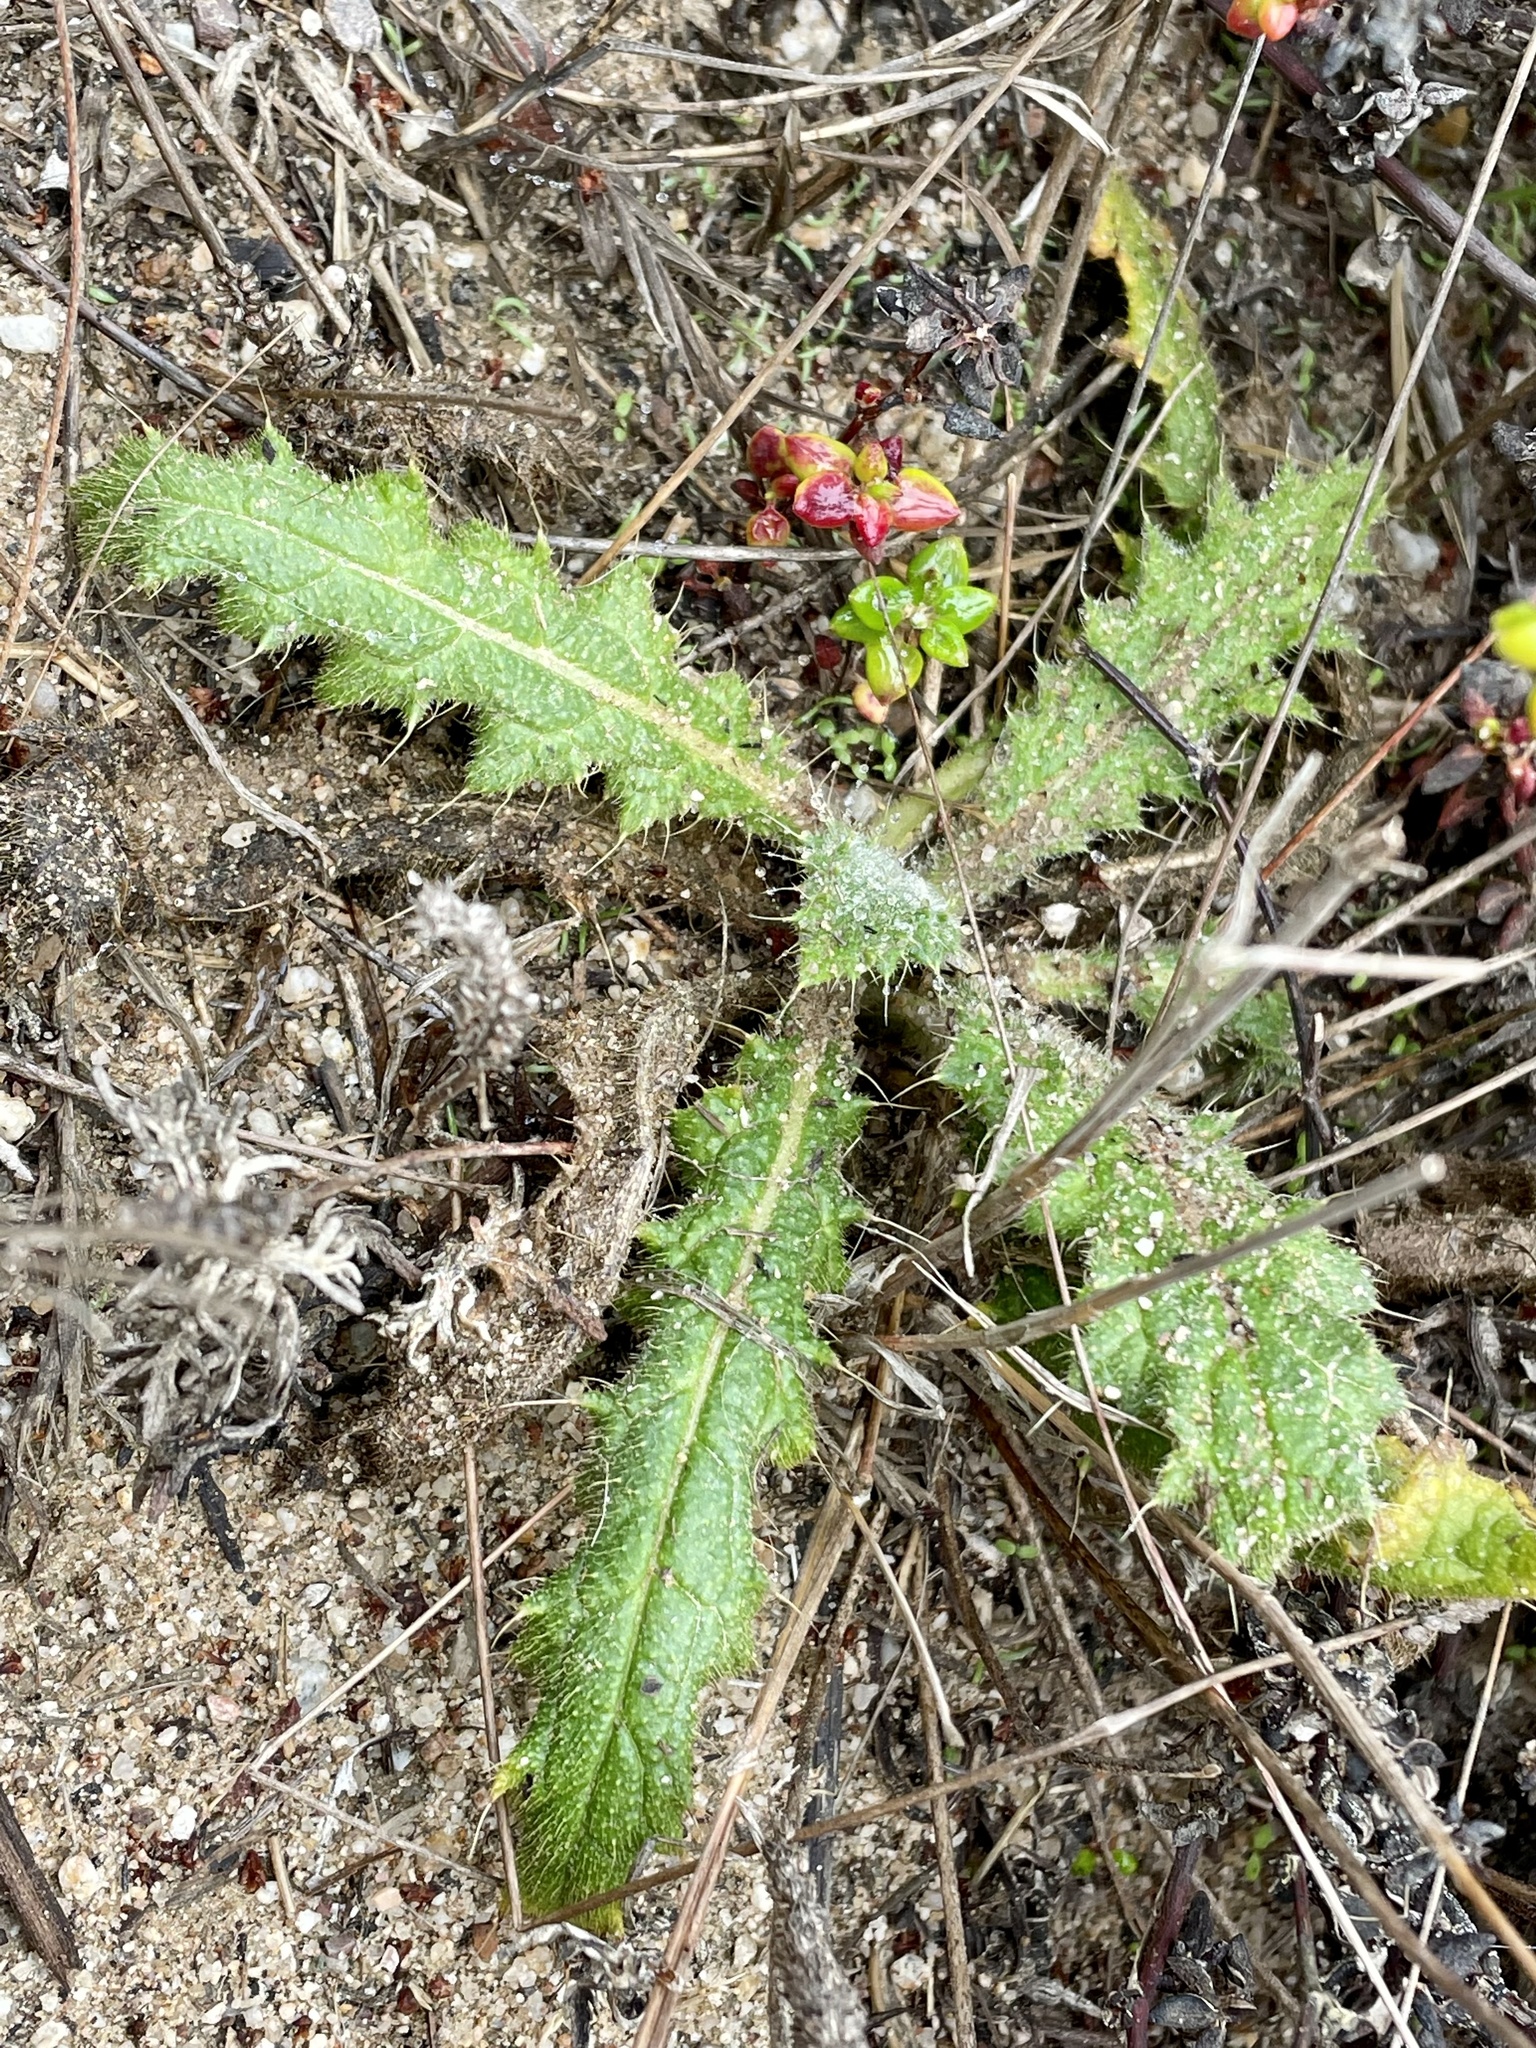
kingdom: Plantae
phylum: Tracheophyta
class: Magnoliopsida
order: Asterales
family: Asteraceae
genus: Cirsium
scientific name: Cirsium brevistylum
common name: Indian thistle
